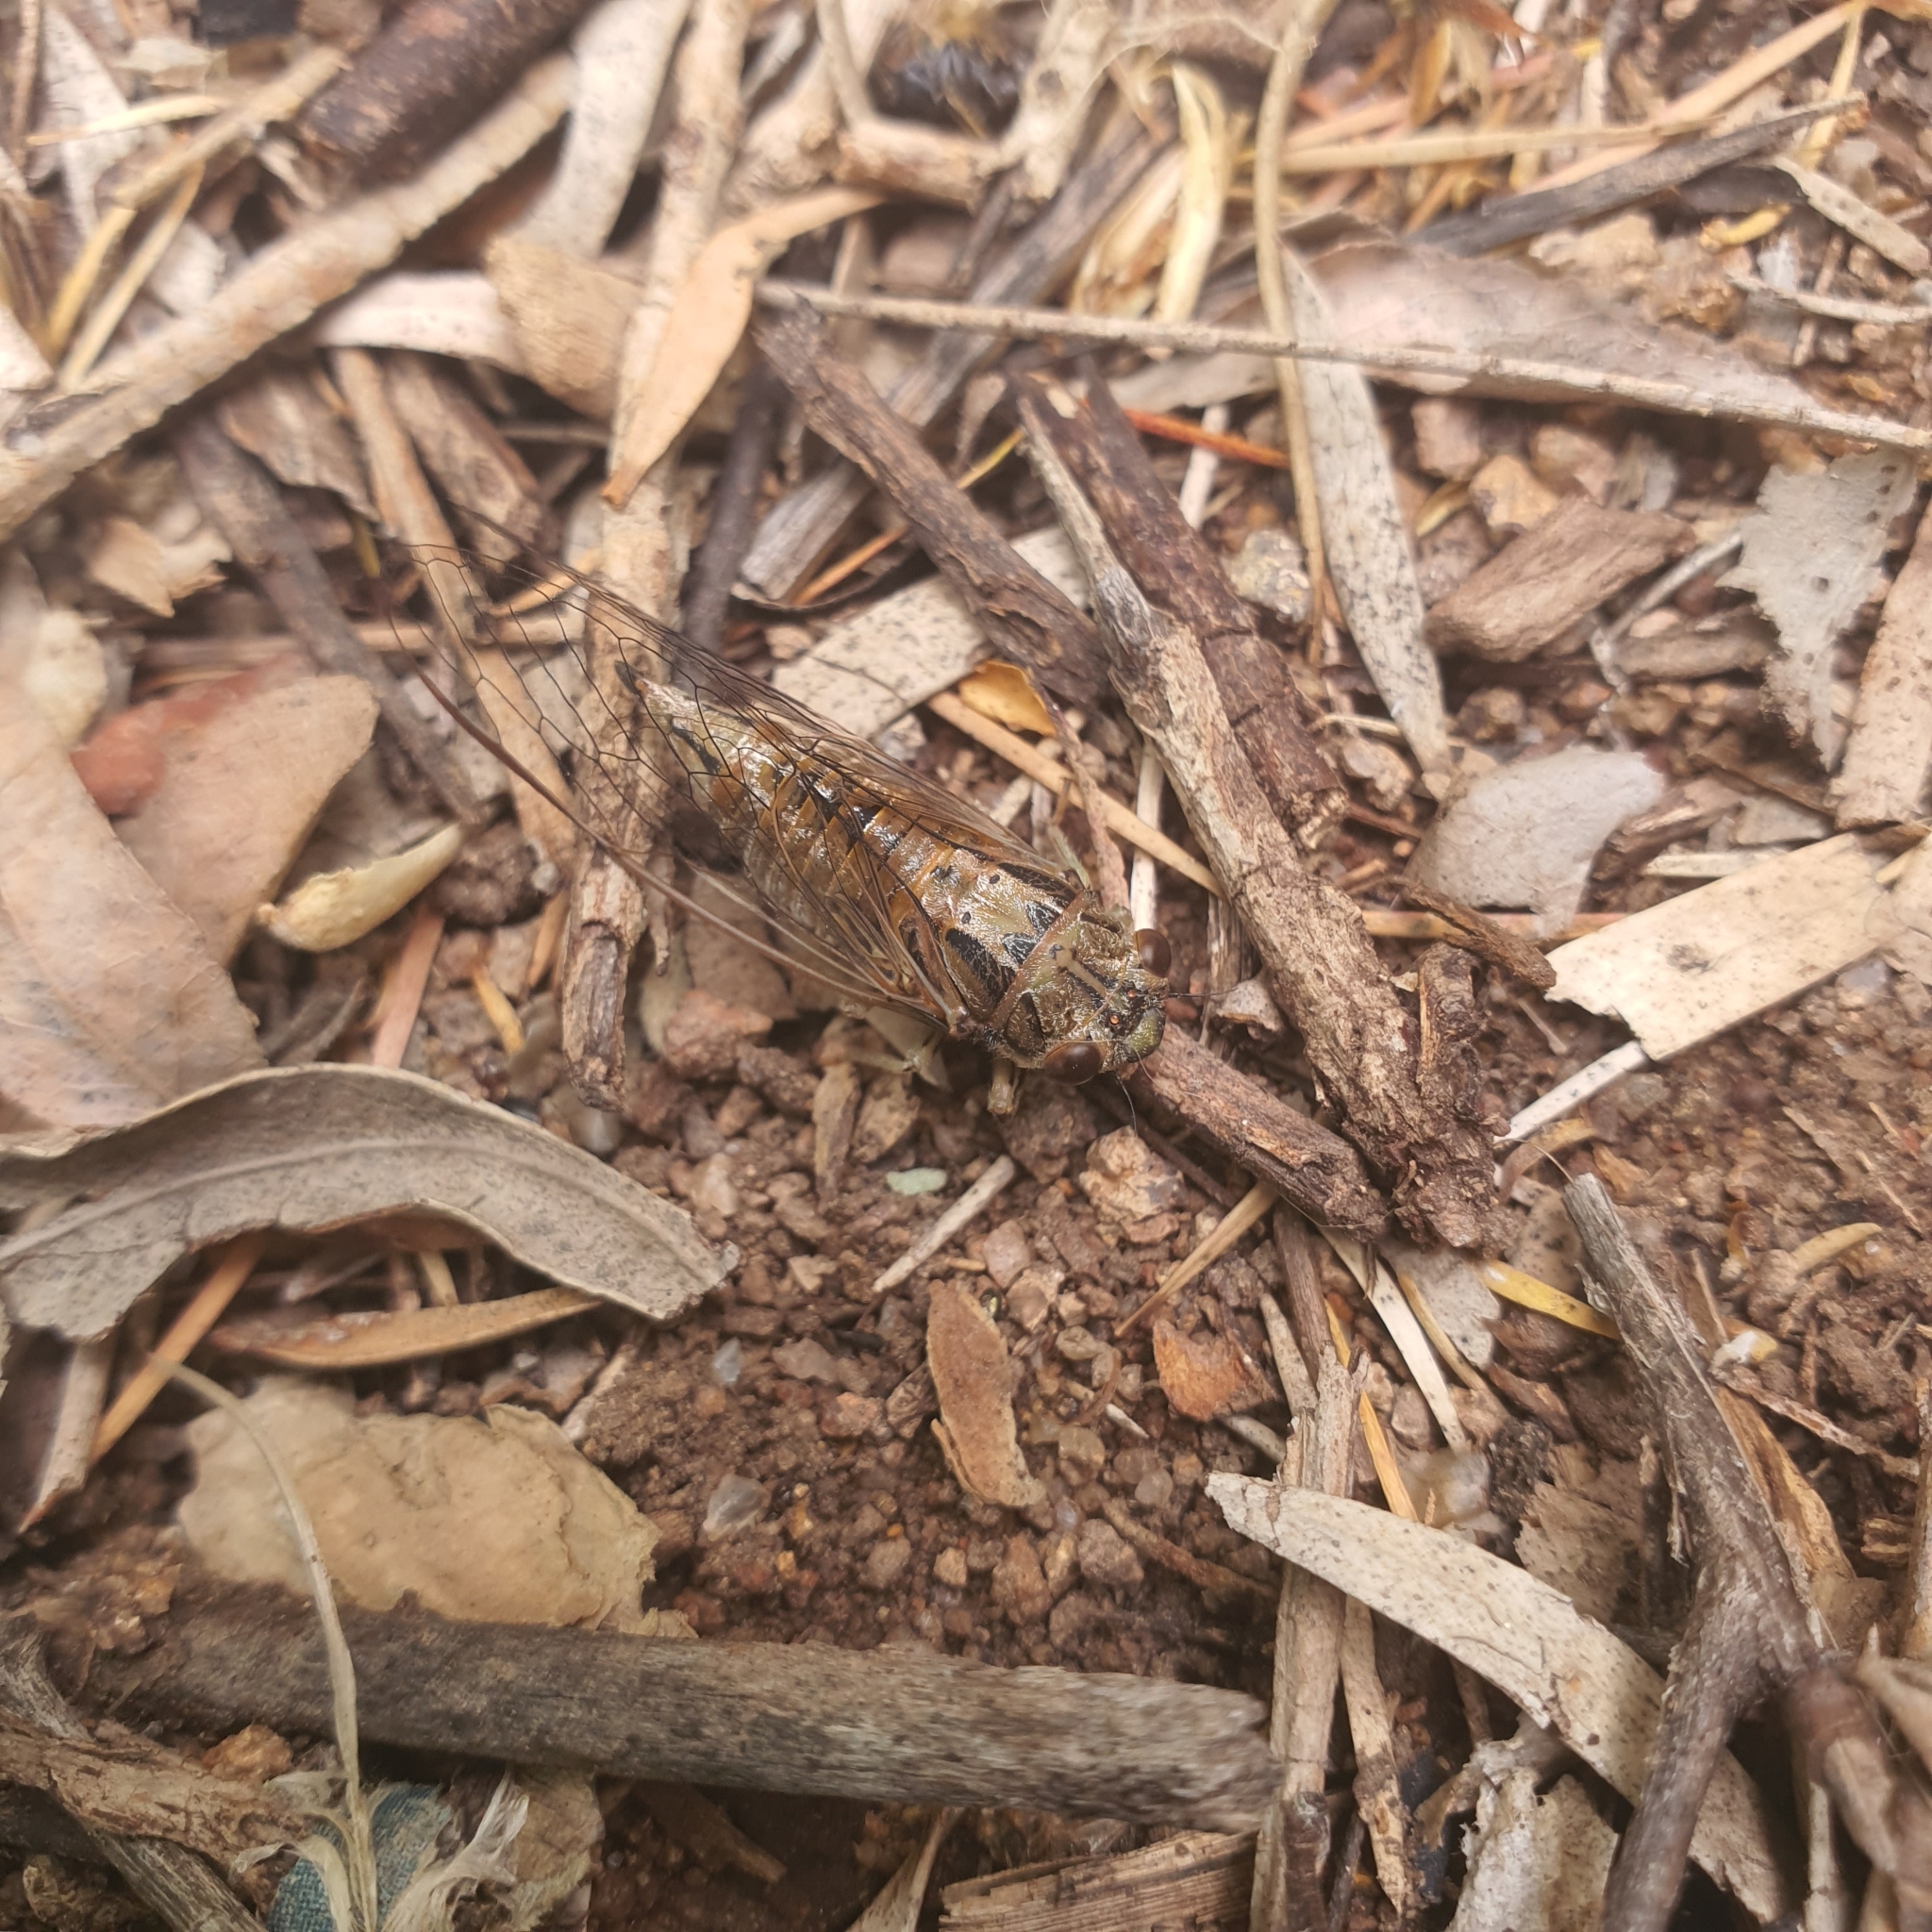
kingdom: Animalia
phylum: Arthropoda
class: Insecta
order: Hemiptera
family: Cicadidae
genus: Yoyetta
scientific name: Yoyetta celis
